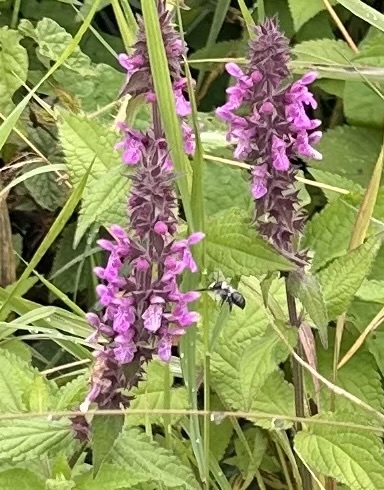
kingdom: Plantae
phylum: Tracheophyta
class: Magnoliopsida
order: Lamiales
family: Lamiaceae
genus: Stachys
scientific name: Stachys palustris
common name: Marsh woundwort
